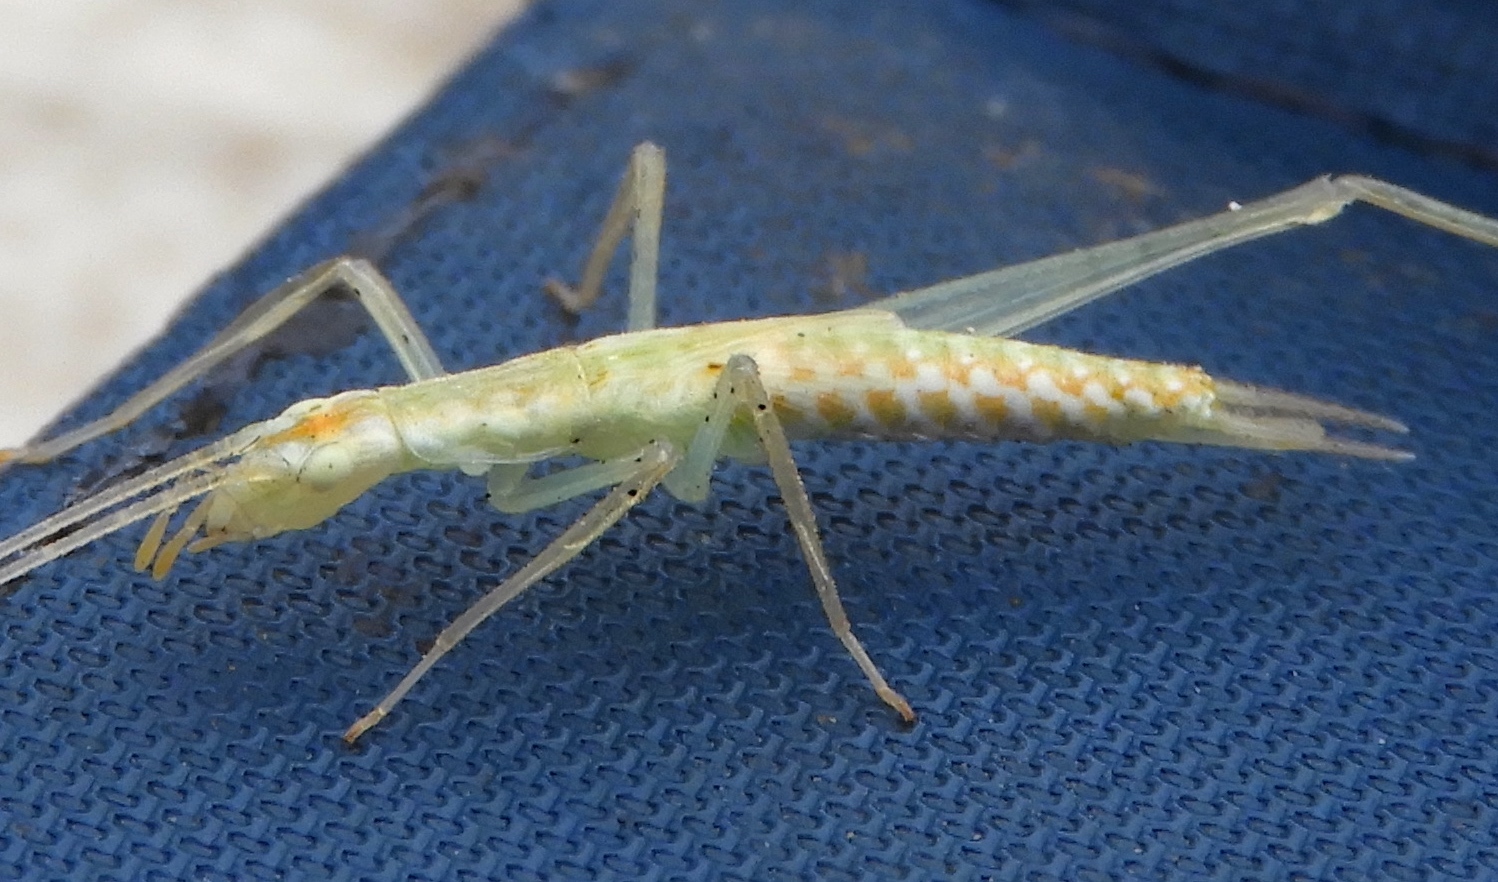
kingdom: Animalia
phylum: Arthropoda
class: Insecta
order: Orthoptera
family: Gryllidae
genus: Oecanthus
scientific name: Oecanthus leptogrammus
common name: Thin-lined tree cricket
